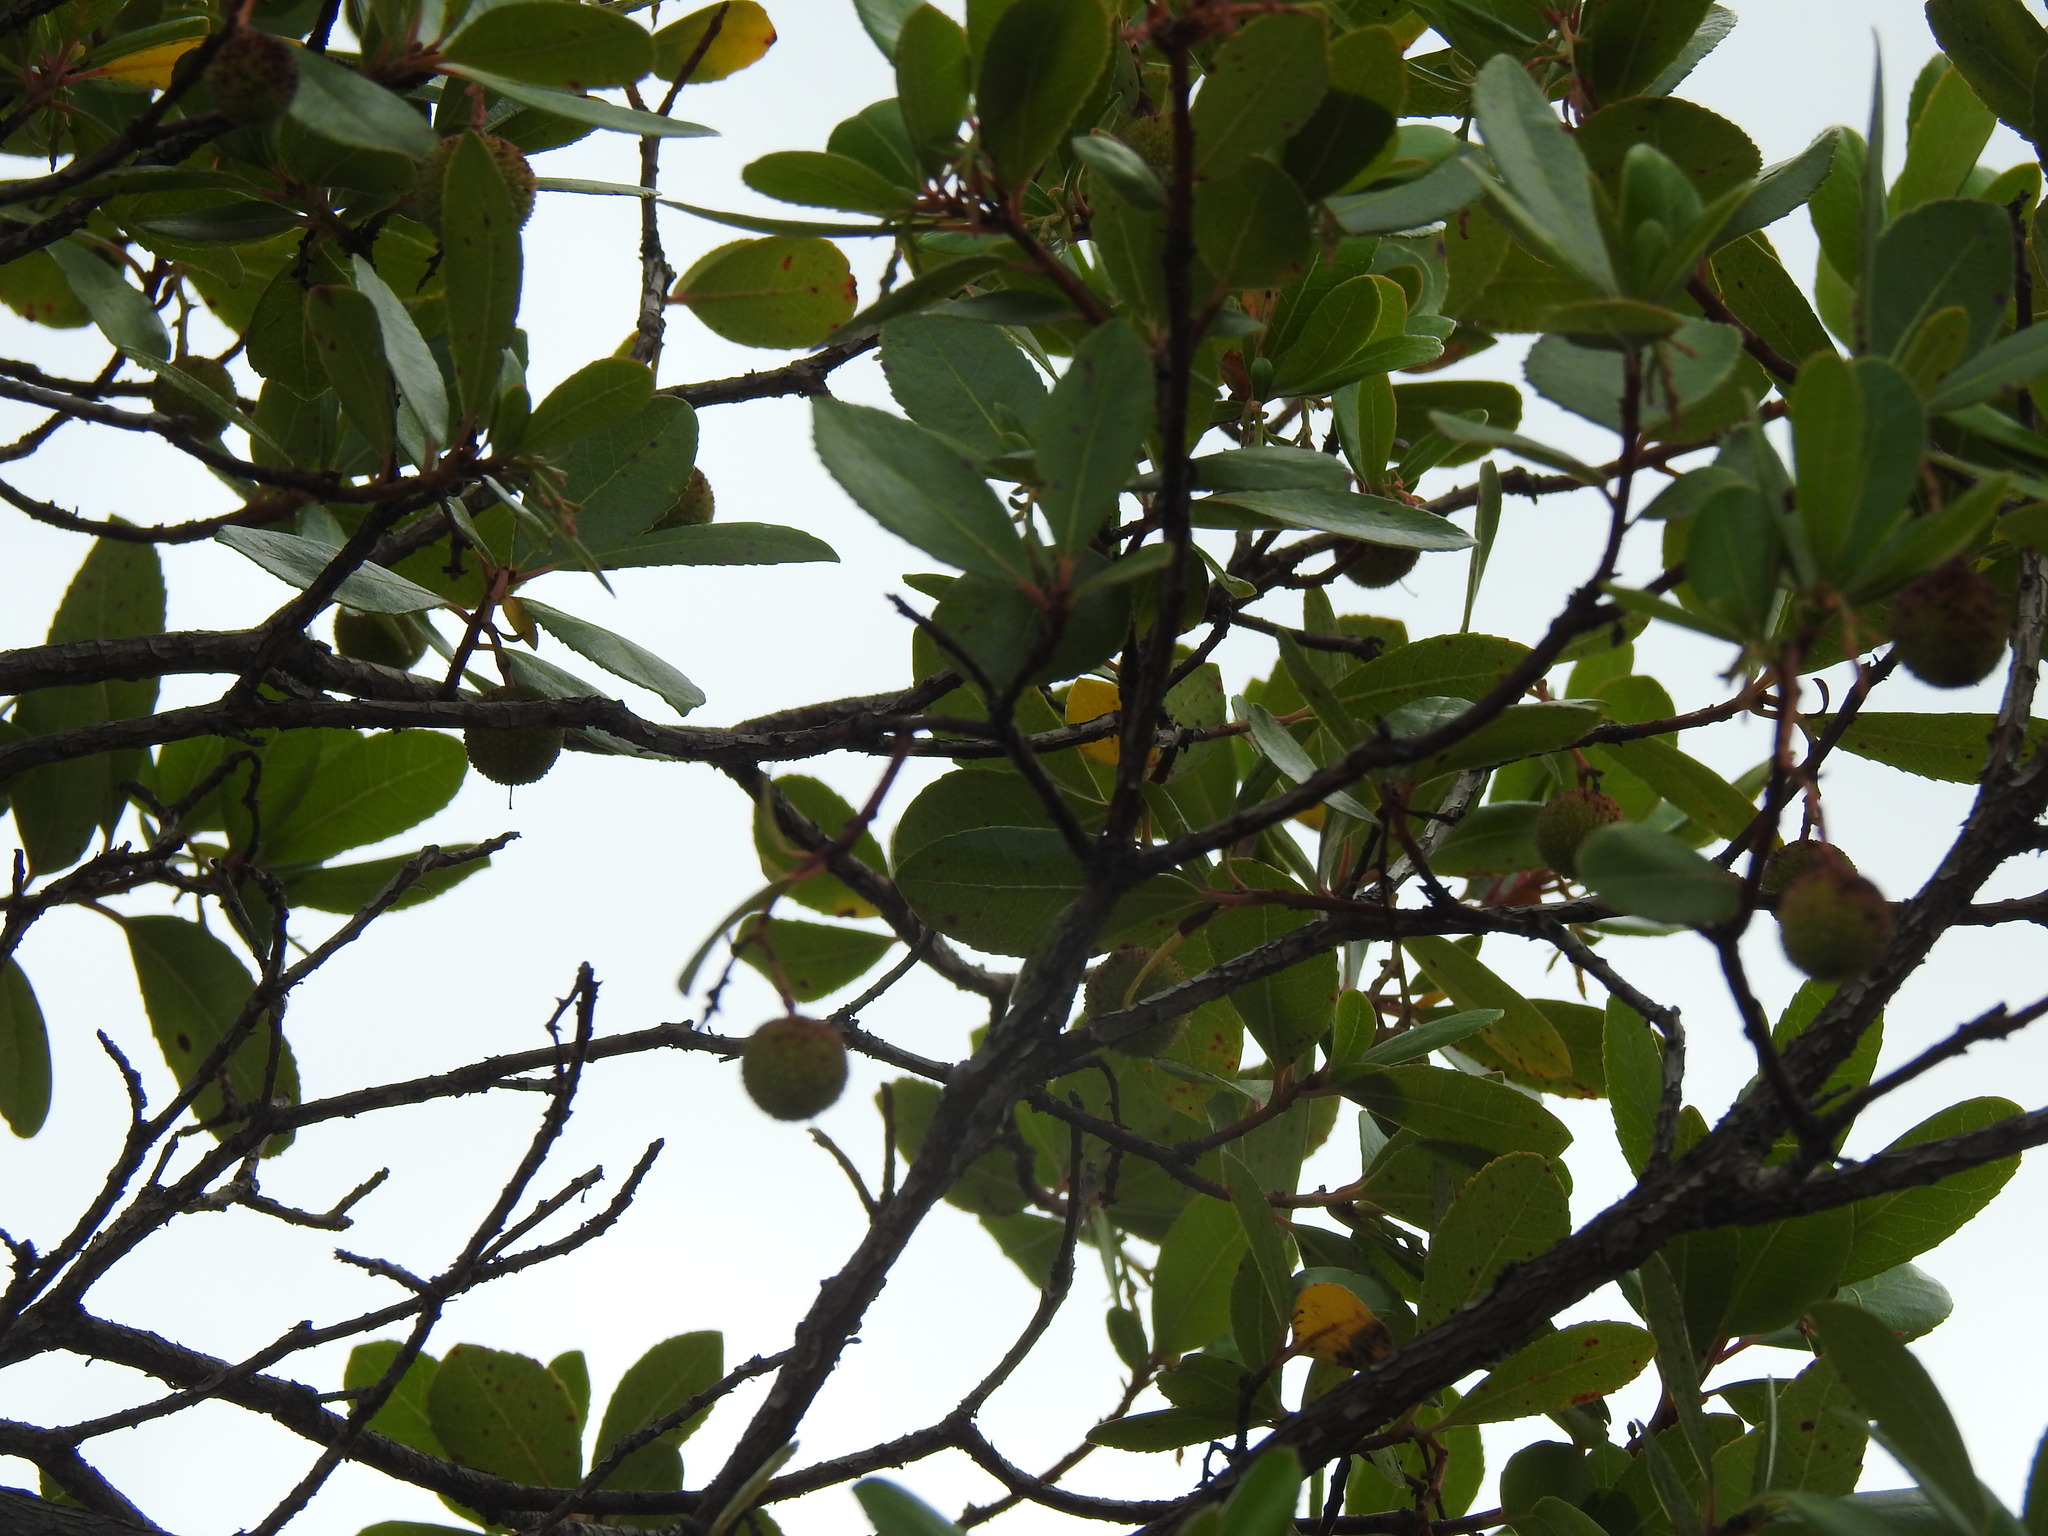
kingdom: Plantae
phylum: Tracheophyta
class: Magnoliopsida
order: Ericales
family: Ericaceae
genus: Arbutus
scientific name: Arbutus unedo
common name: Strawberry-tree
